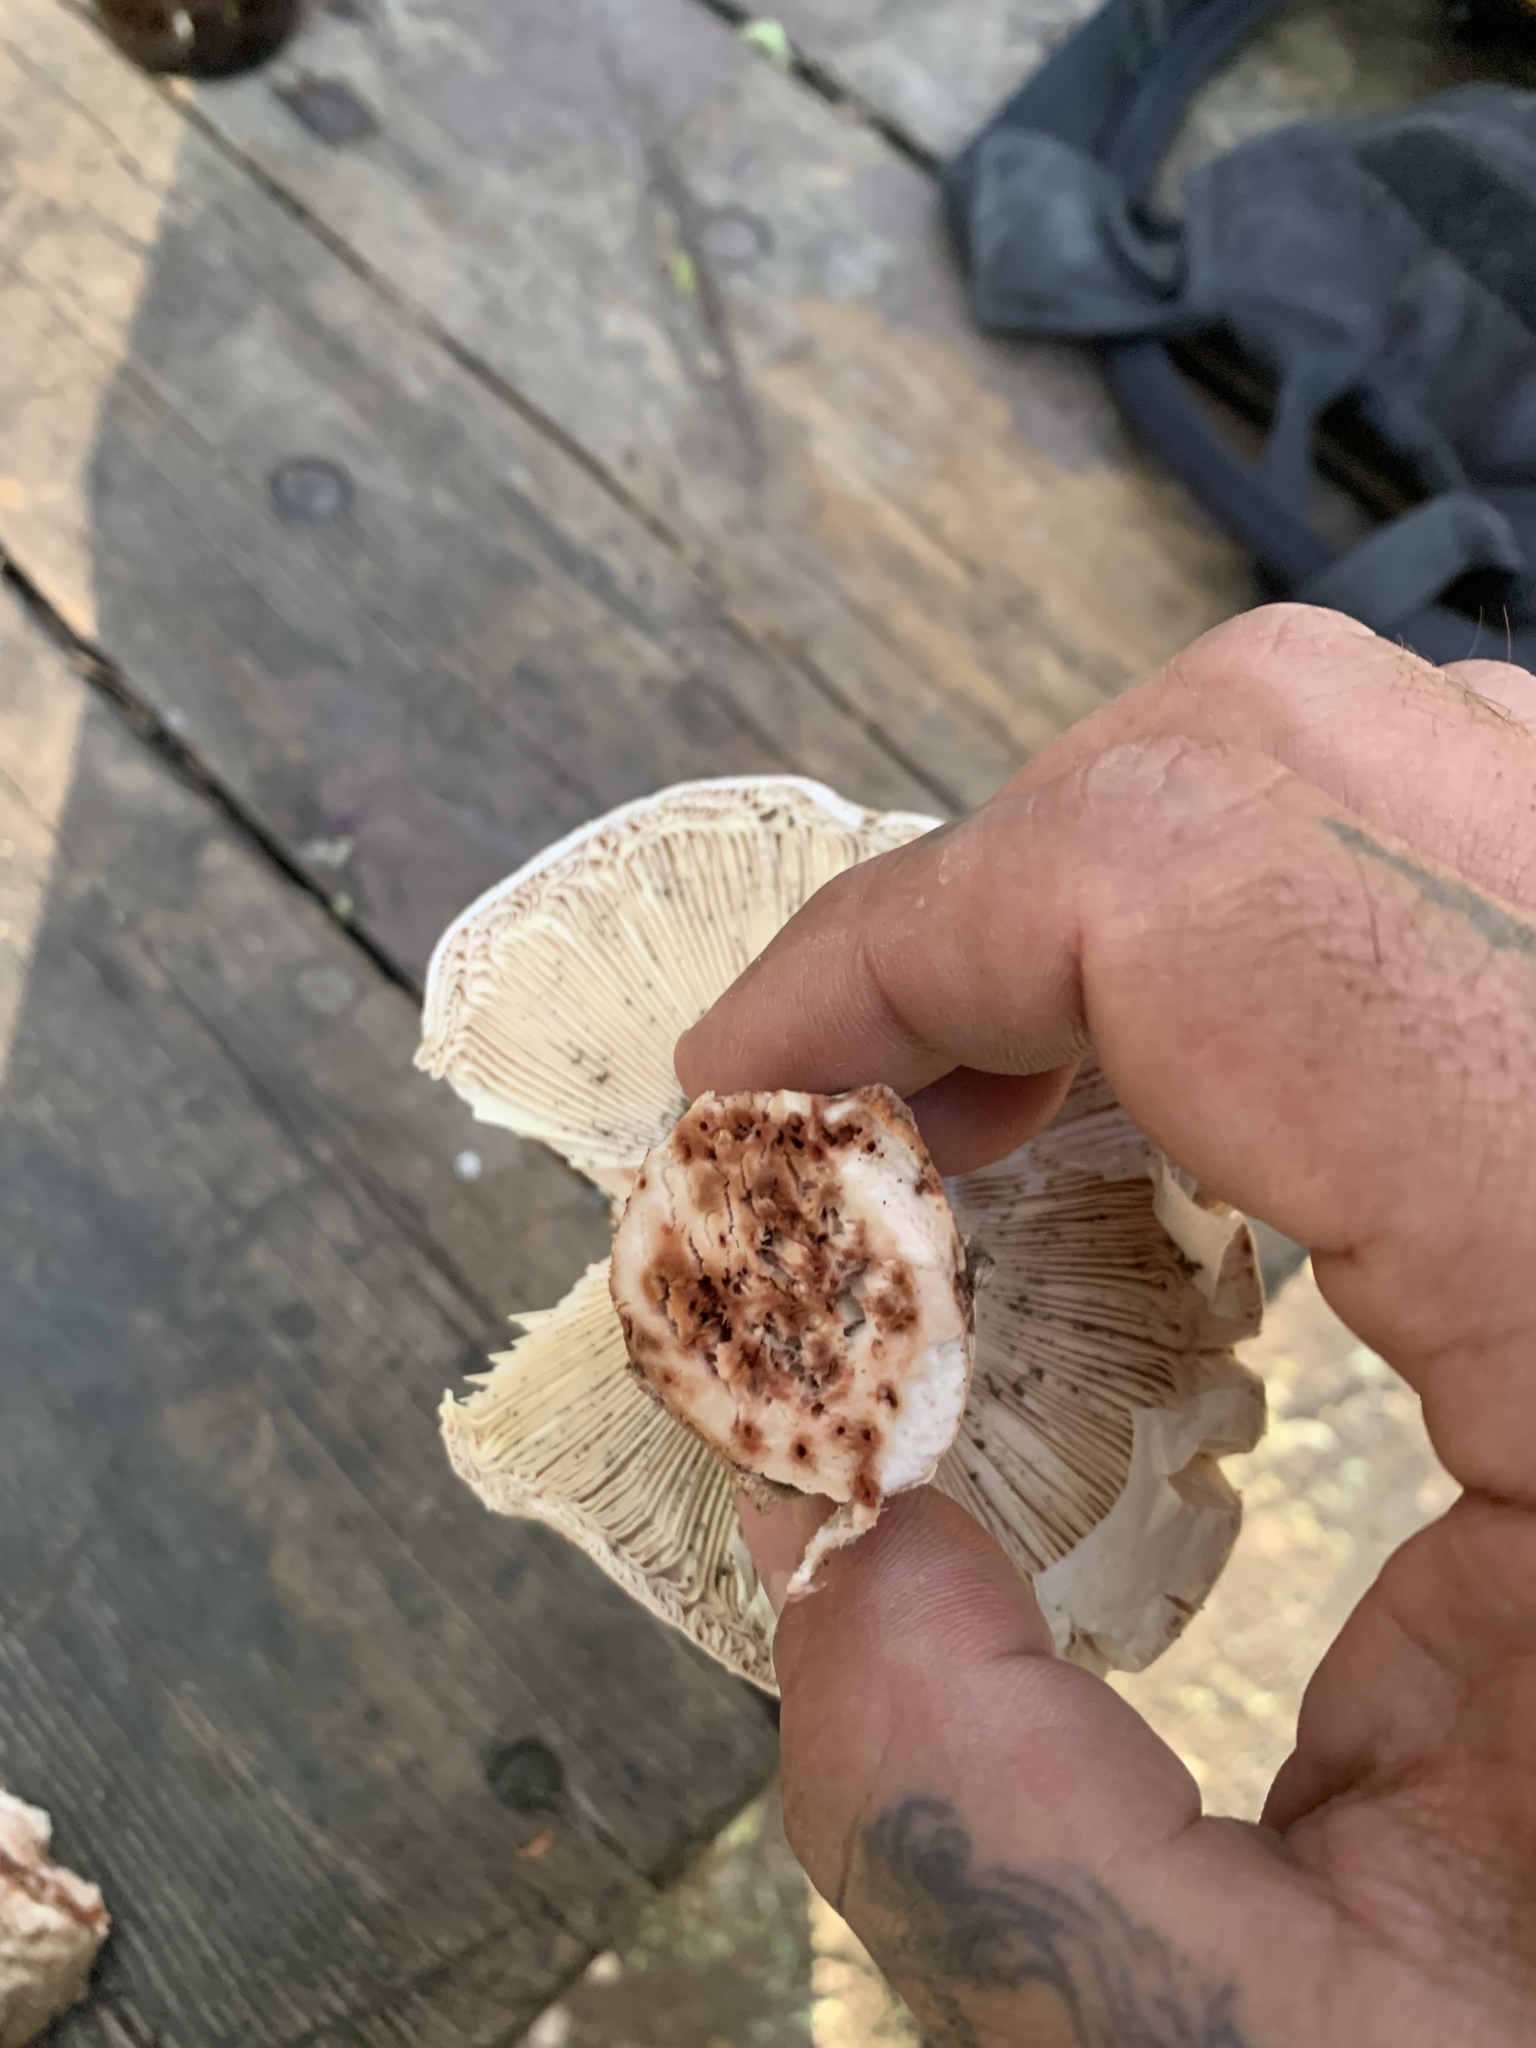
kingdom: Fungi
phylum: Basidiomycota
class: Agaricomycetes
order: Agaricales
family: Amanitaceae
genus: Amanita
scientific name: Amanita novinupta
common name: Blushing bride
